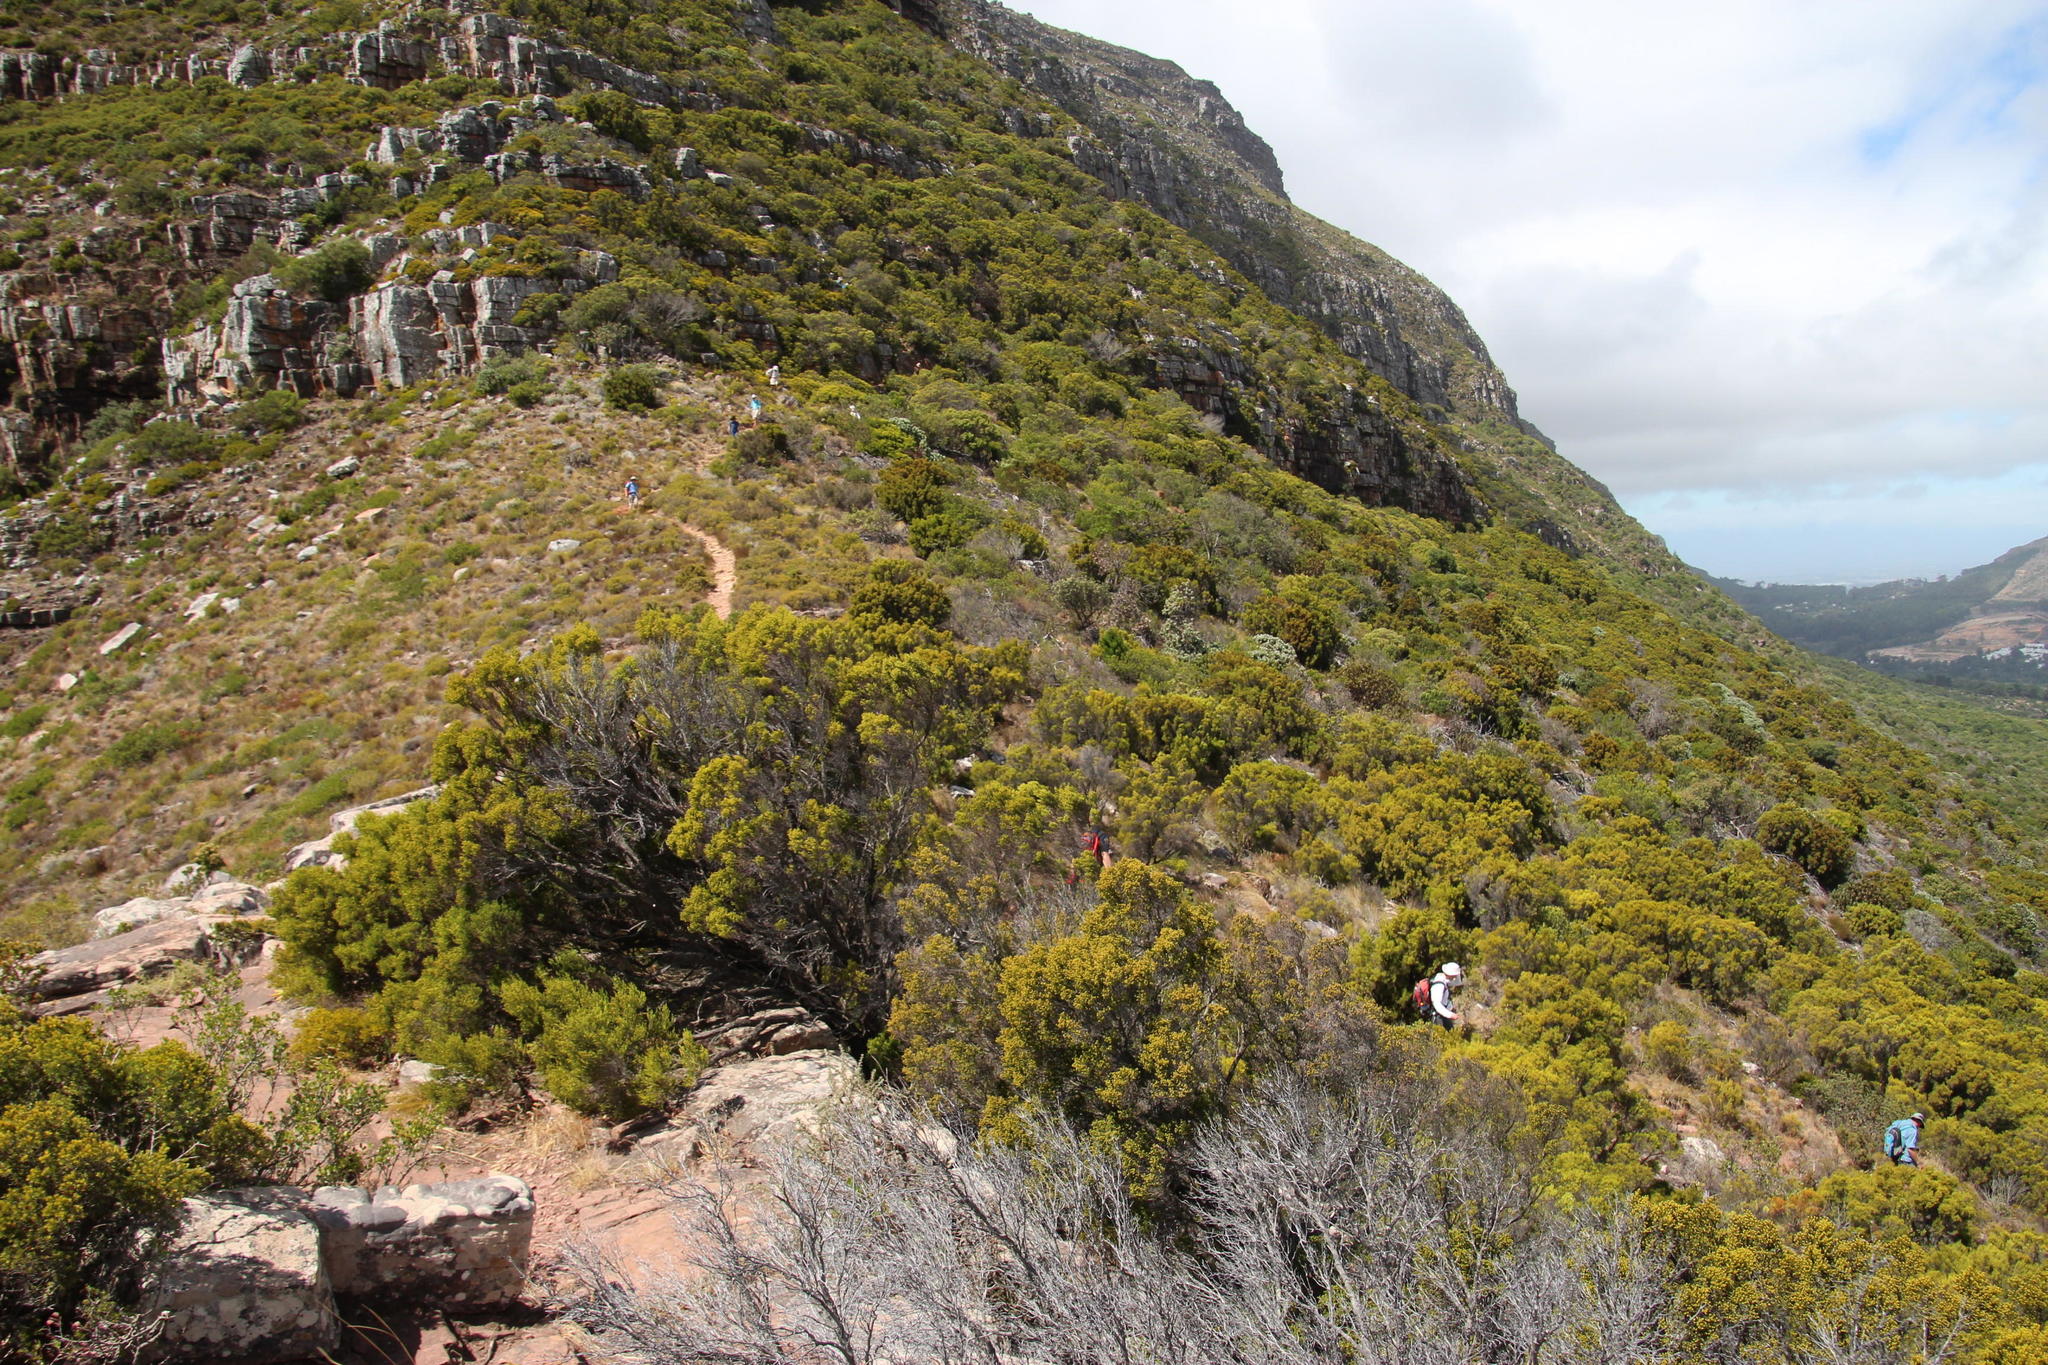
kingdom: Plantae
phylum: Tracheophyta
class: Magnoliopsida
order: Ericales
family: Ericaceae
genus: Erica
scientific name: Erica tristis
